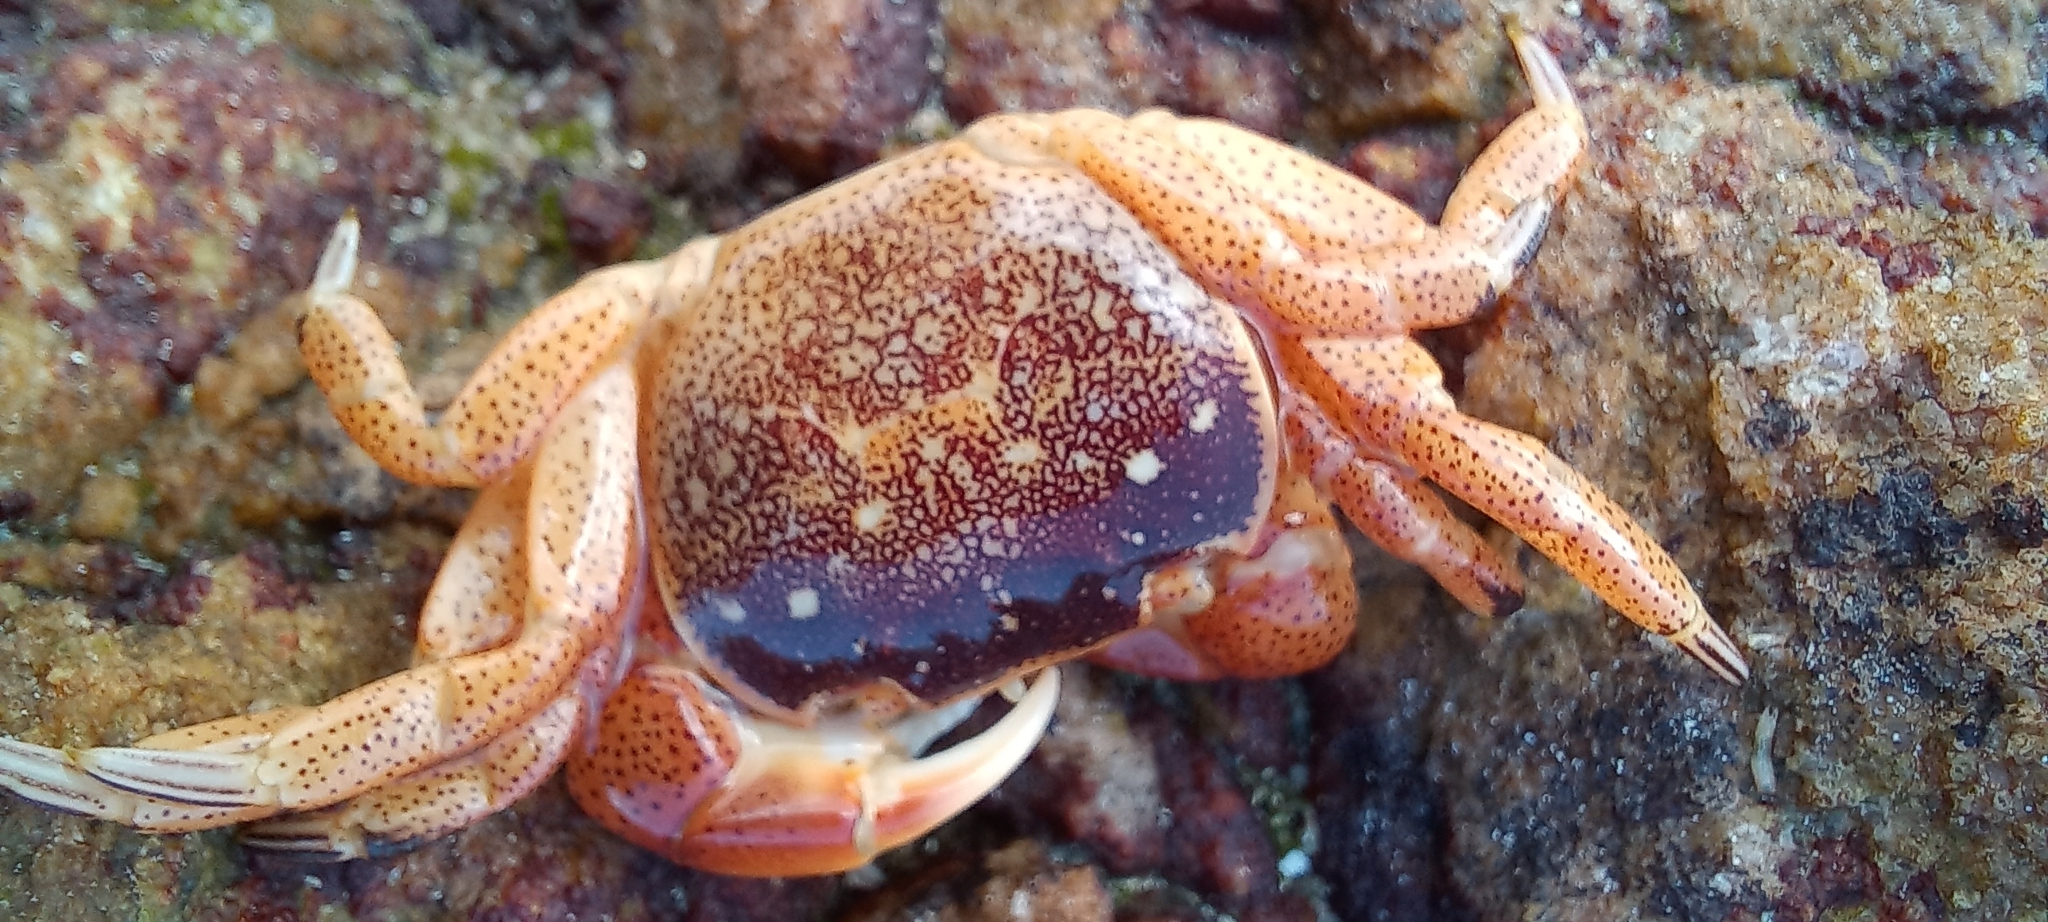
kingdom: Animalia
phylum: Arthropoda
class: Malacostraca
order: Decapoda
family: Varunidae
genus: Cyclograpsus
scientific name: Cyclograpsus punctatus
